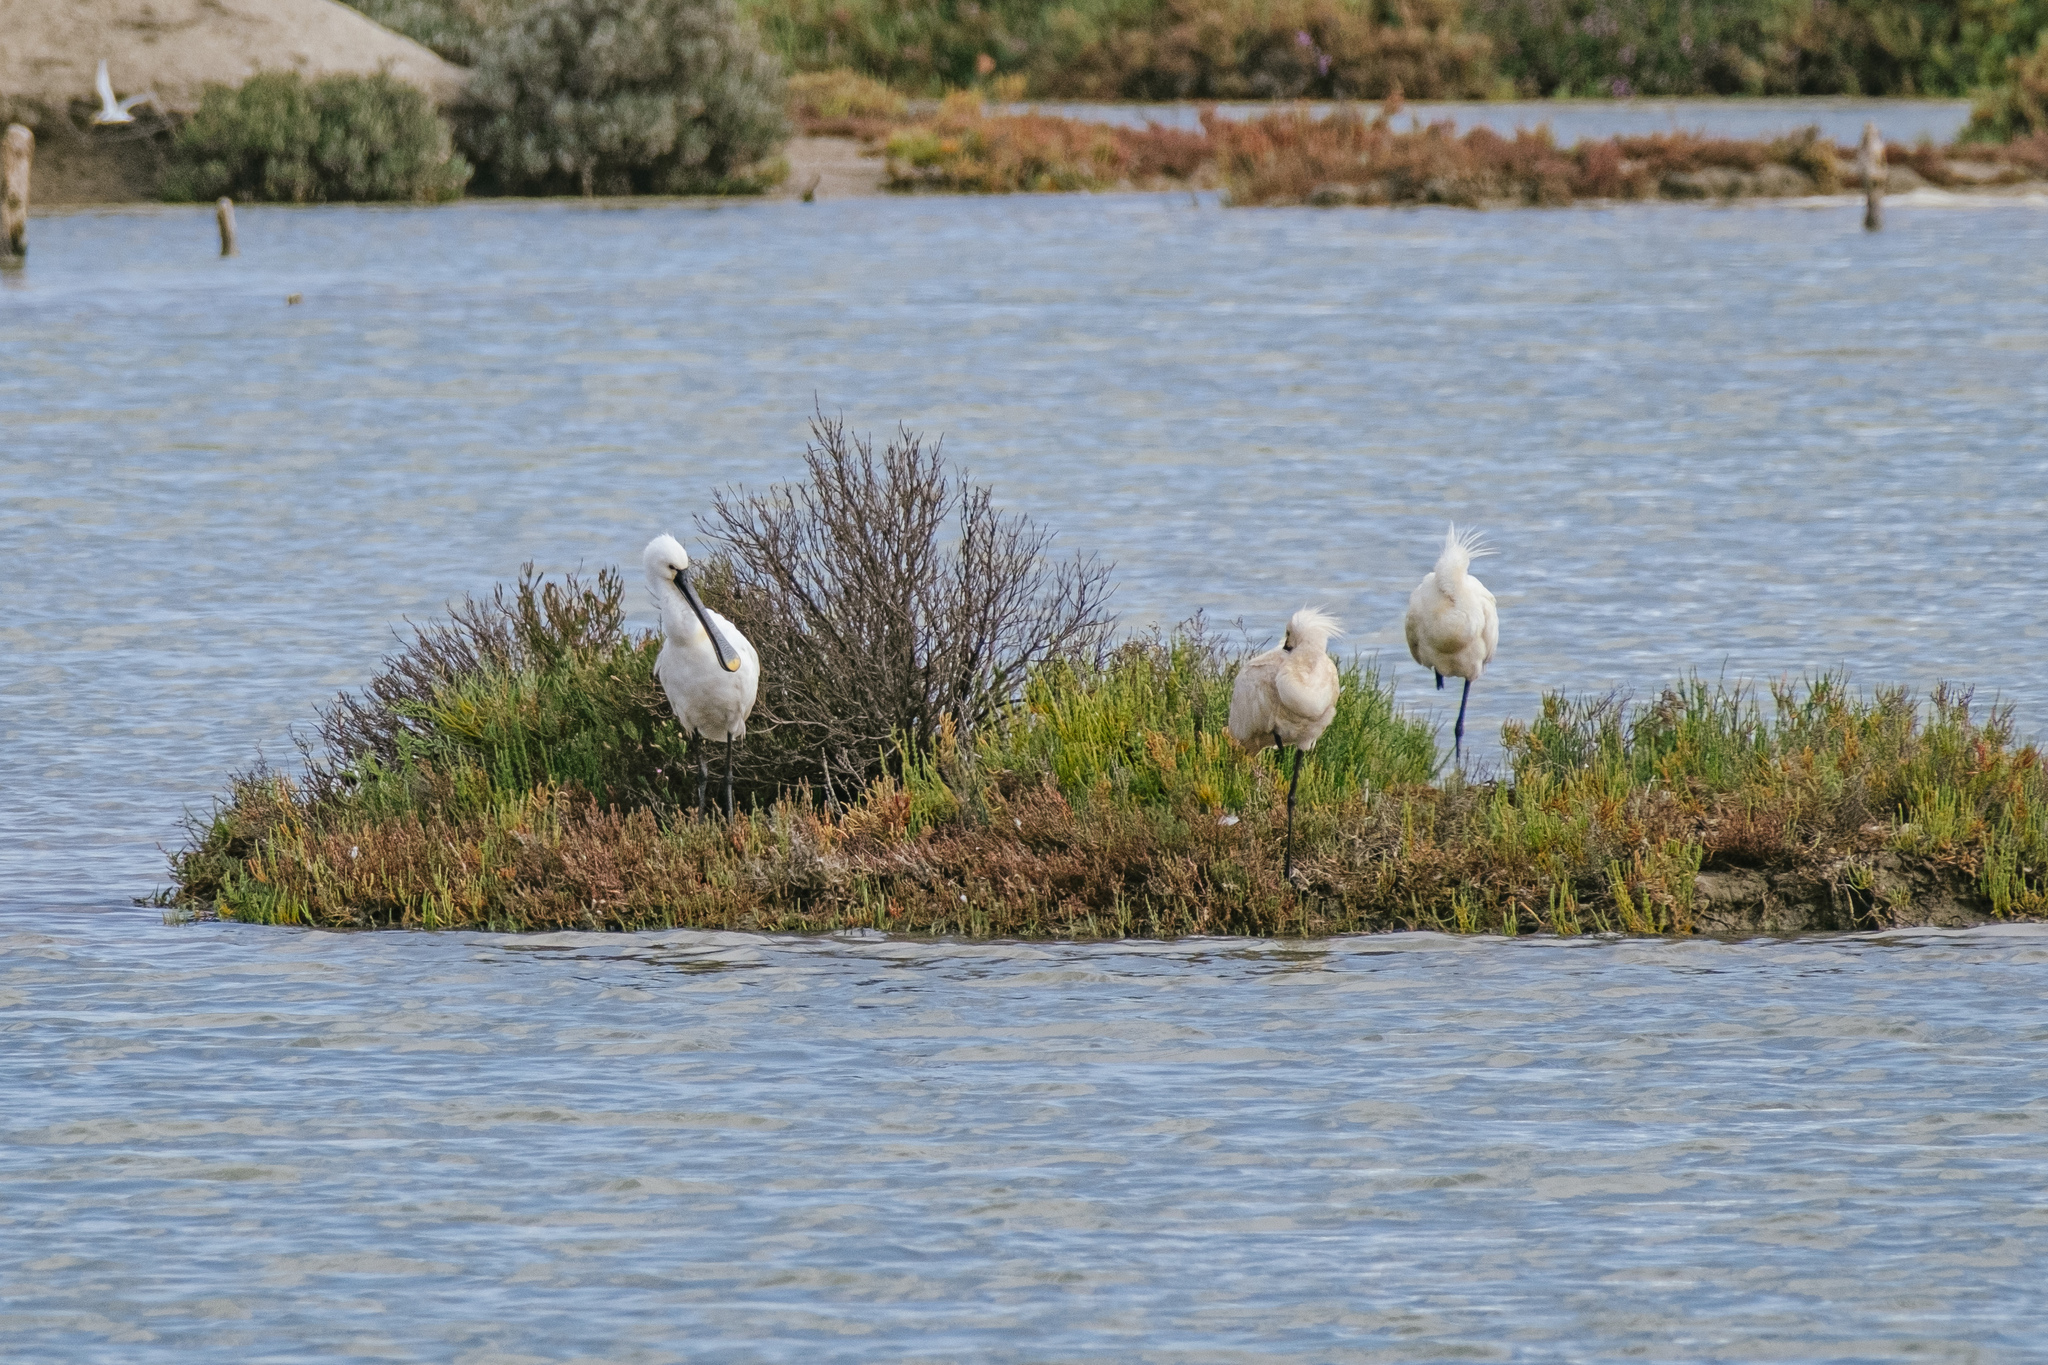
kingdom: Animalia
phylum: Chordata
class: Aves
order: Pelecaniformes
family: Threskiornithidae
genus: Platalea
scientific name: Platalea leucorodia
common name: Eurasian spoonbill
